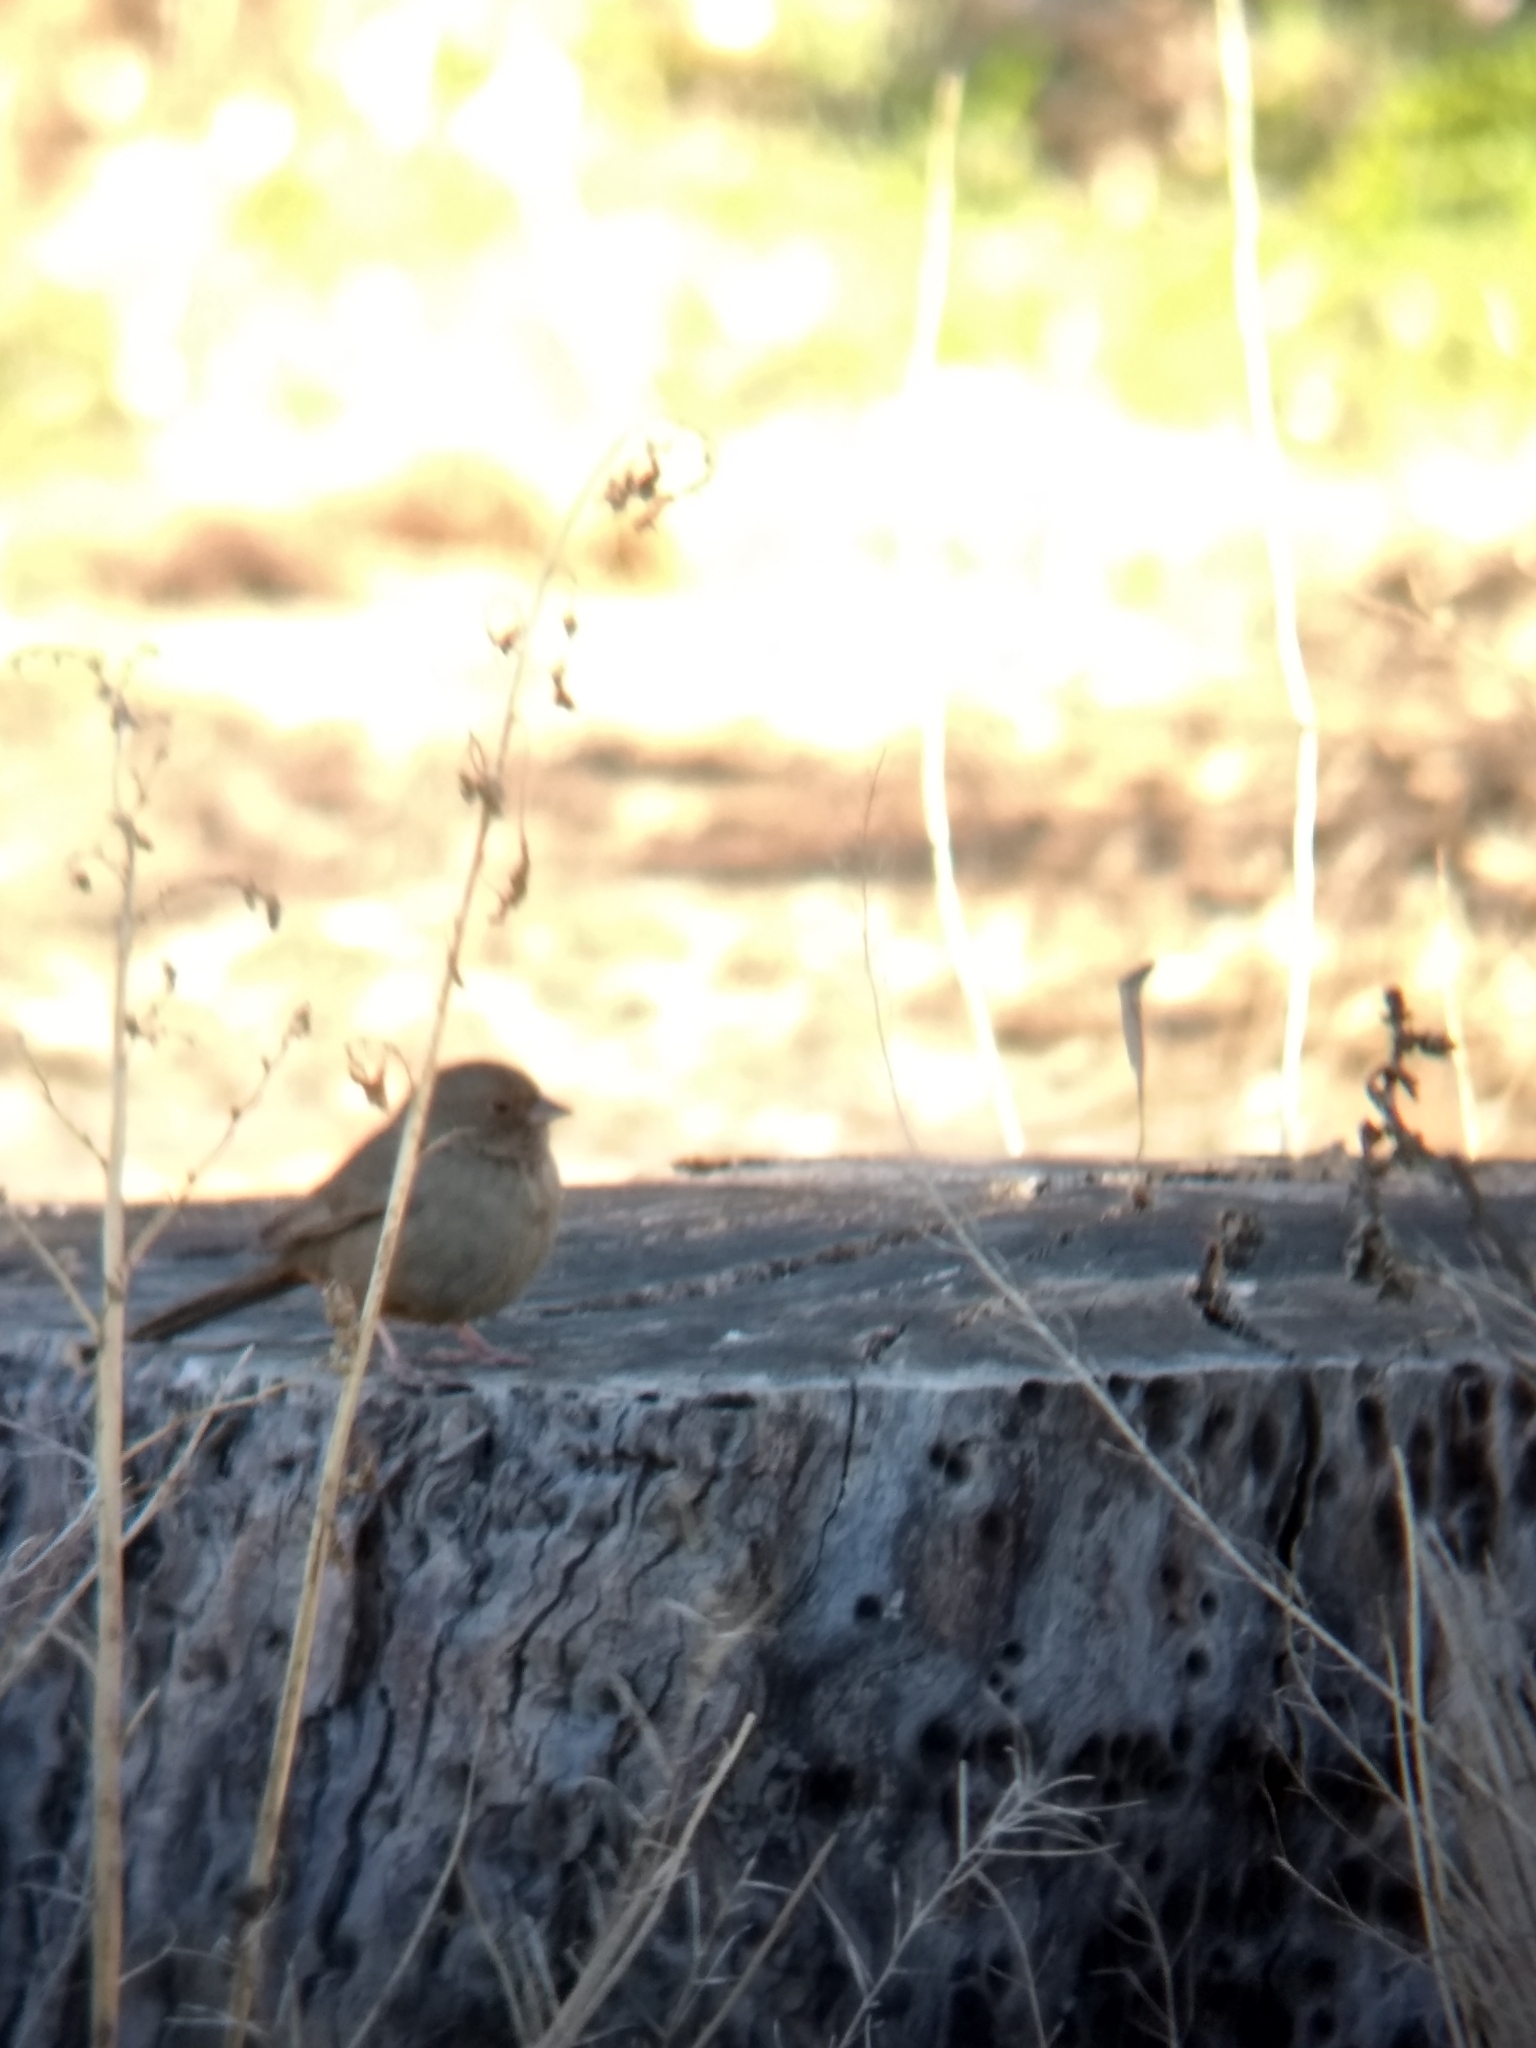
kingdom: Animalia
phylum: Chordata
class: Aves
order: Passeriformes
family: Passerellidae
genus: Melozone
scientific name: Melozone crissalis
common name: California towhee
